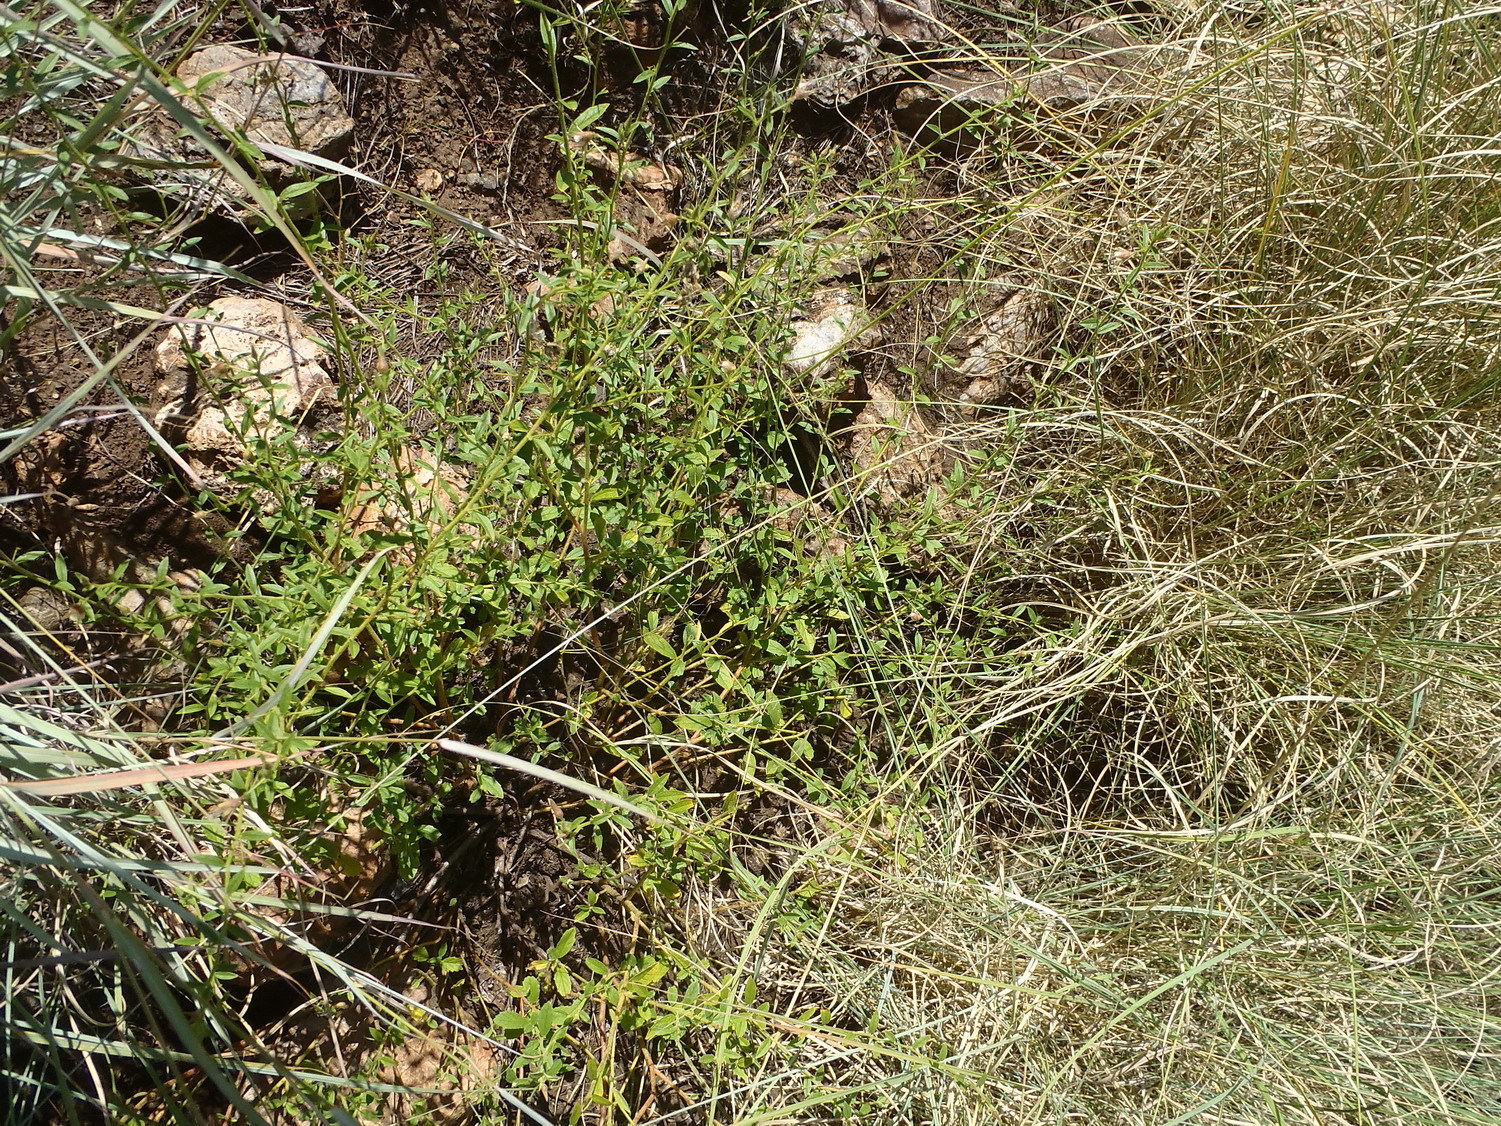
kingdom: Plantae
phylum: Tracheophyta
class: Magnoliopsida
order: Malvales
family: Malvaceae
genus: Hermannia
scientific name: Hermannia boraginiflora
